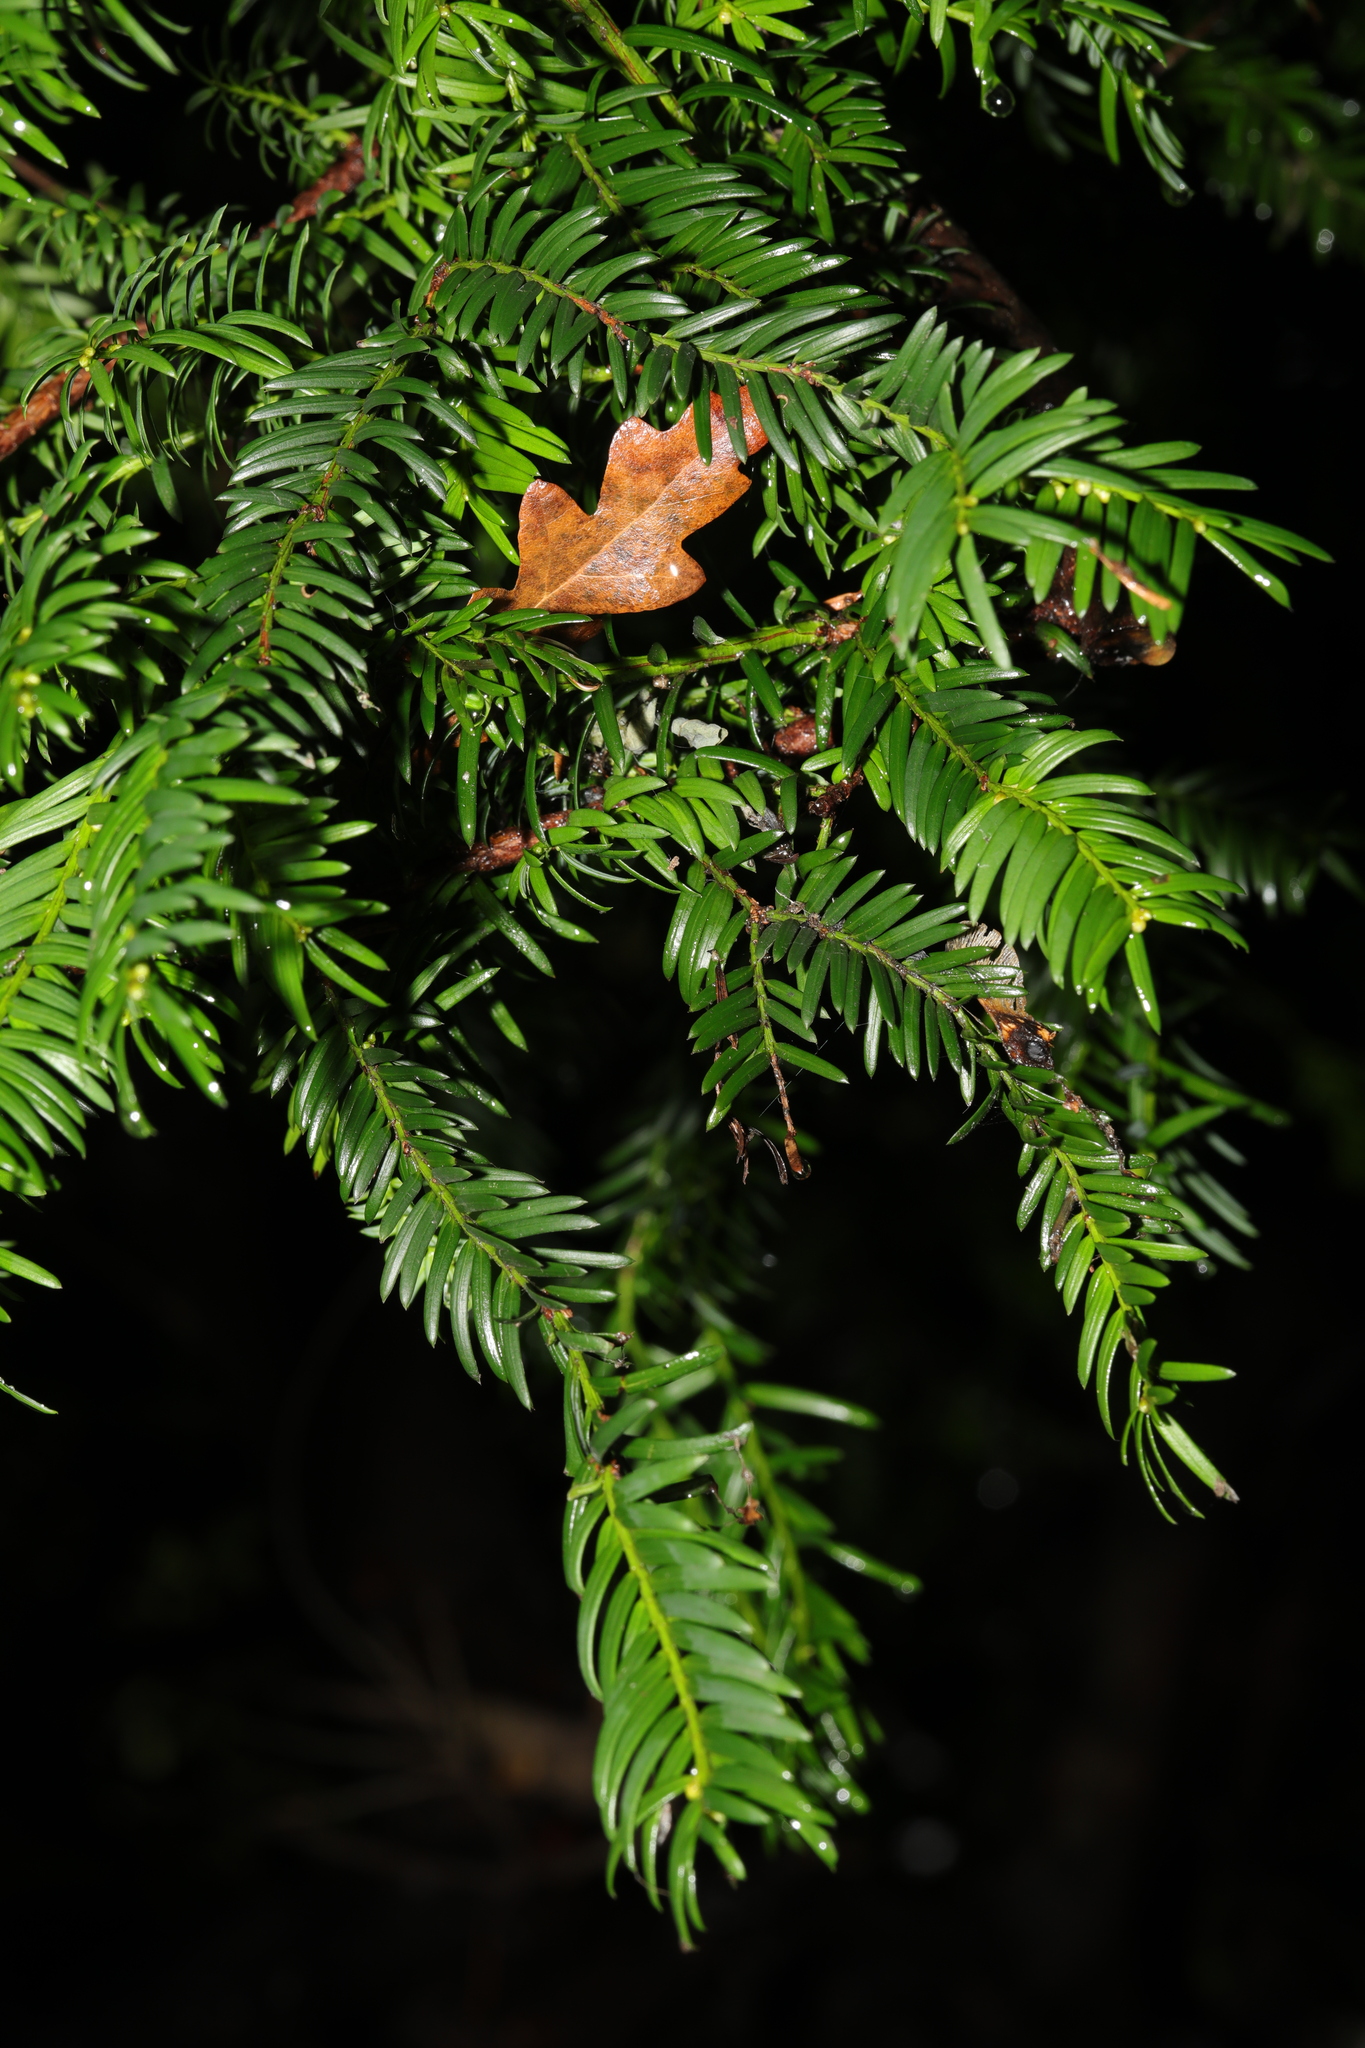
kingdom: Plantae
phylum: Tracheophyta
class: Pinopsida
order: Pinales
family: Taxaceae
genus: Taxus
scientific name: Taxus baccata
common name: Yew
